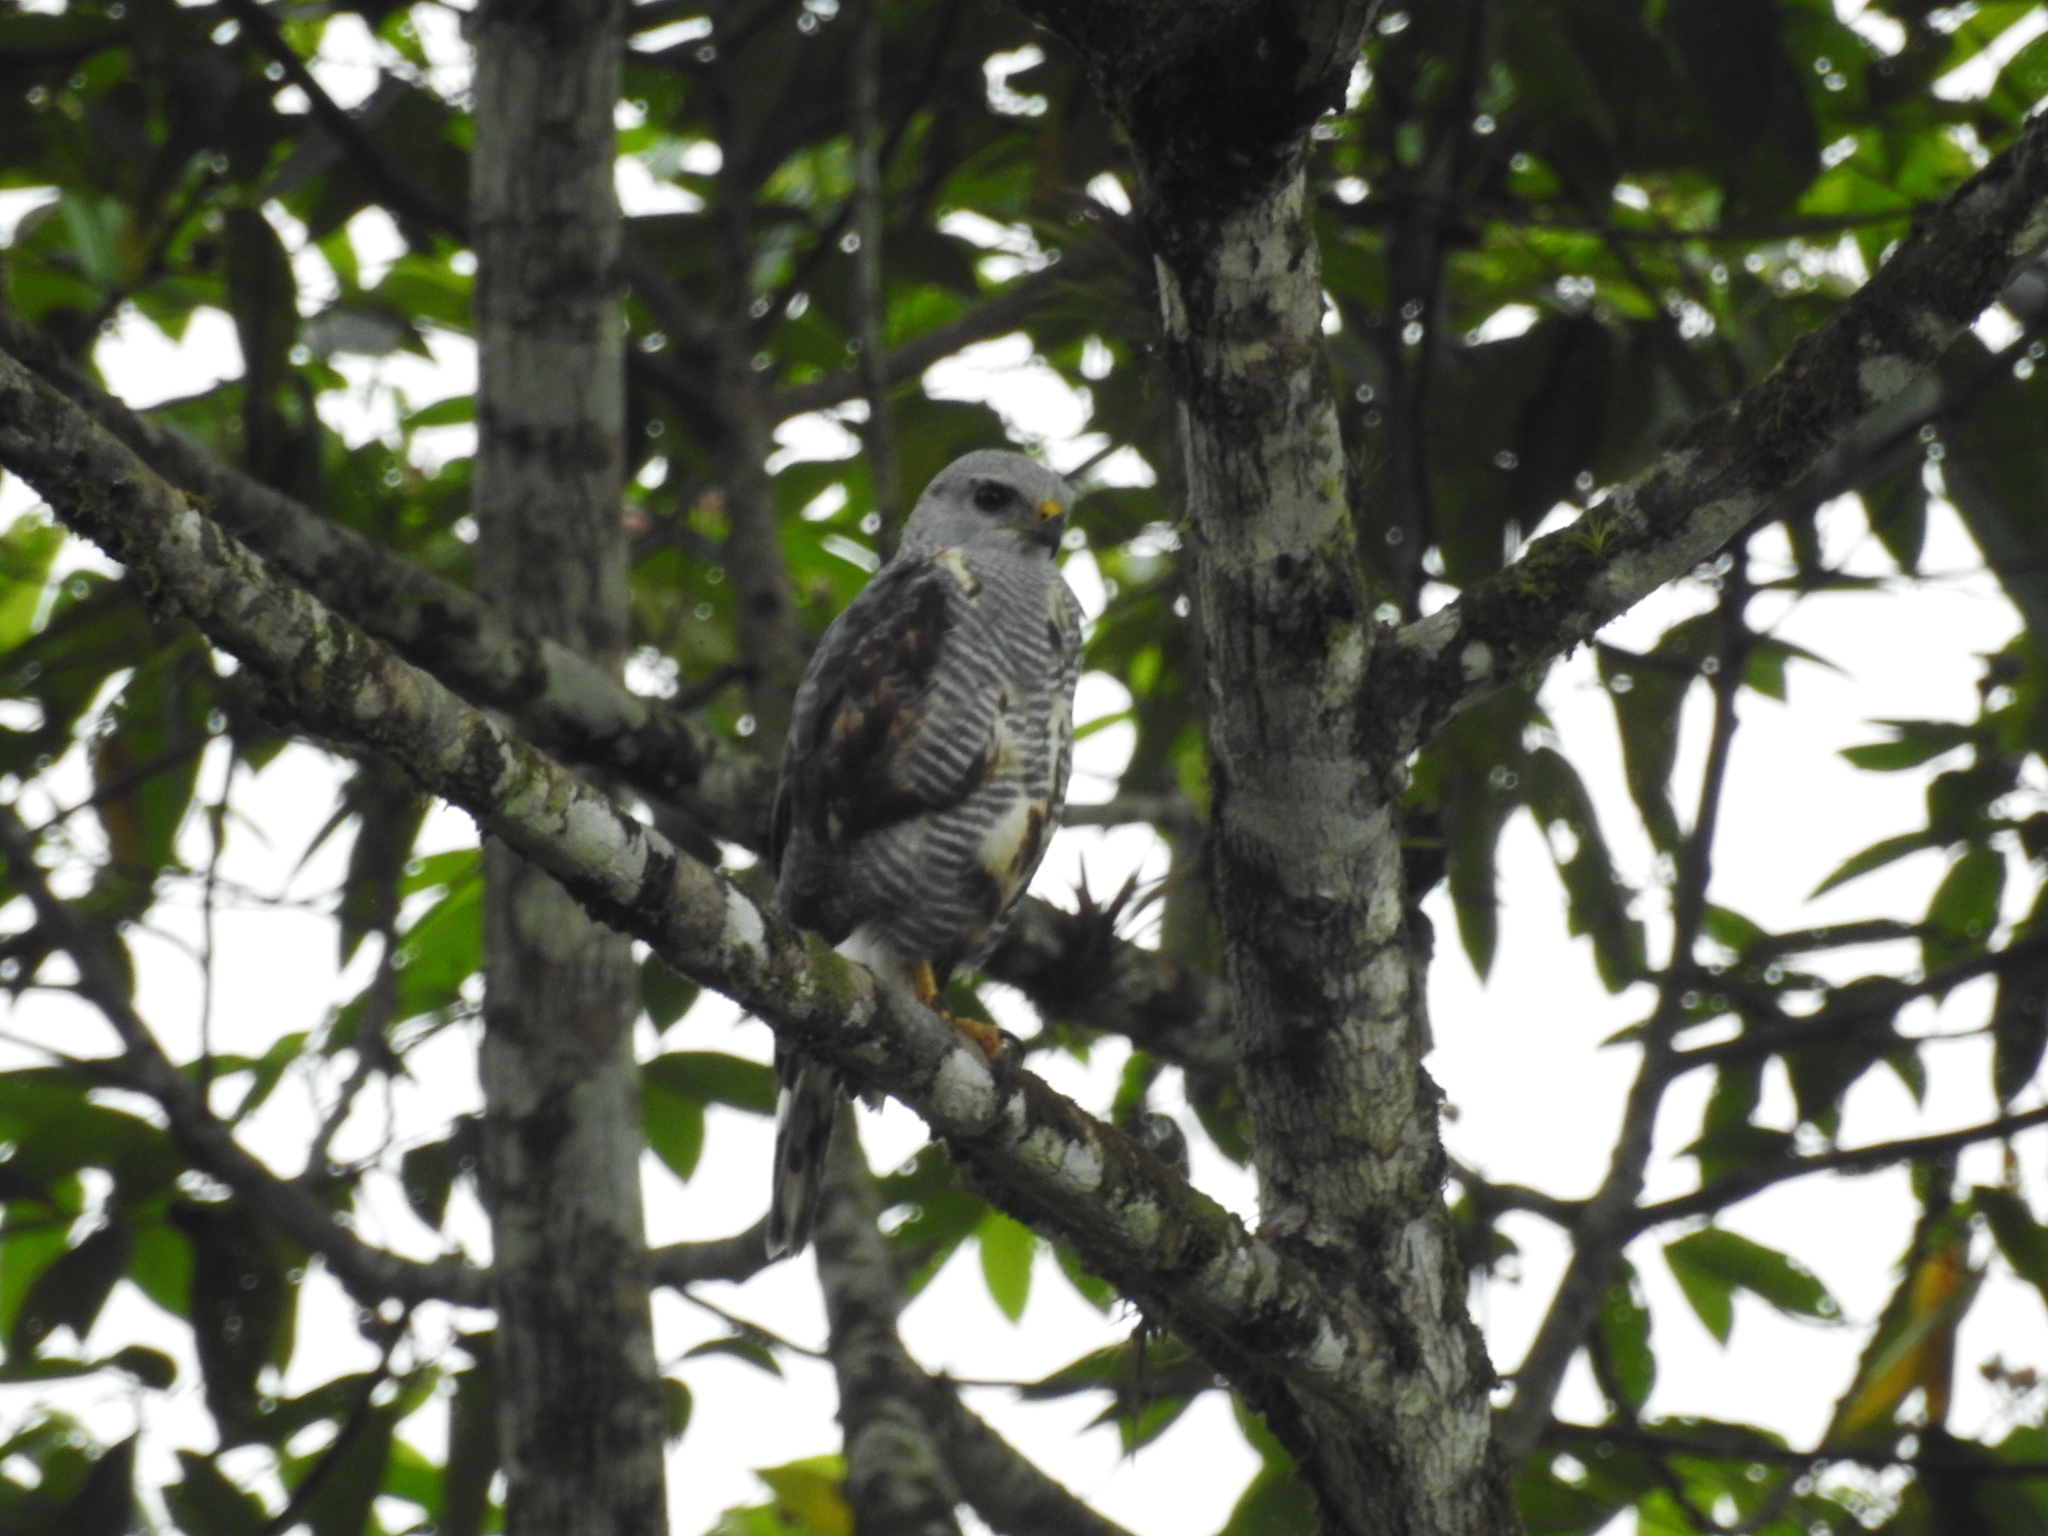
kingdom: Animalia
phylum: Chordata
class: Aves
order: Accipitriformes
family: Accipitridae
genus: Buteo
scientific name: Buteo nitidus
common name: Grey-lined hawk
